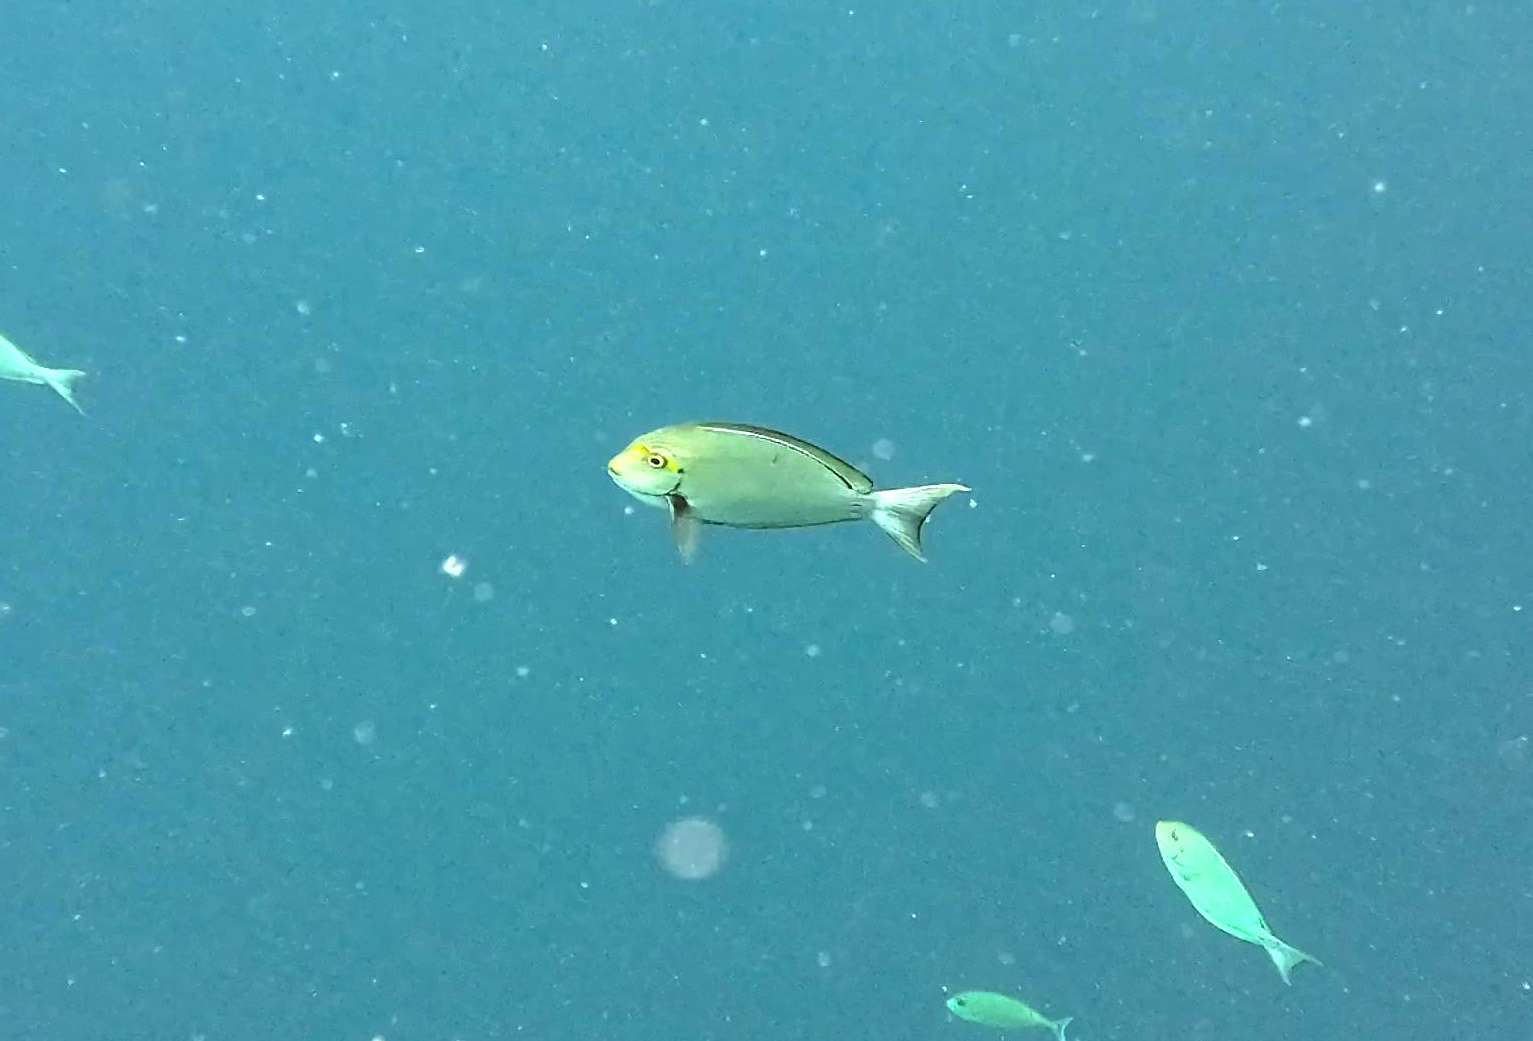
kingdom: Animalia
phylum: Chordata
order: Perciformes
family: Acanthuridae
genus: Acanthurus
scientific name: Acanthurus mata
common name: Bleeker's surgeonfish
